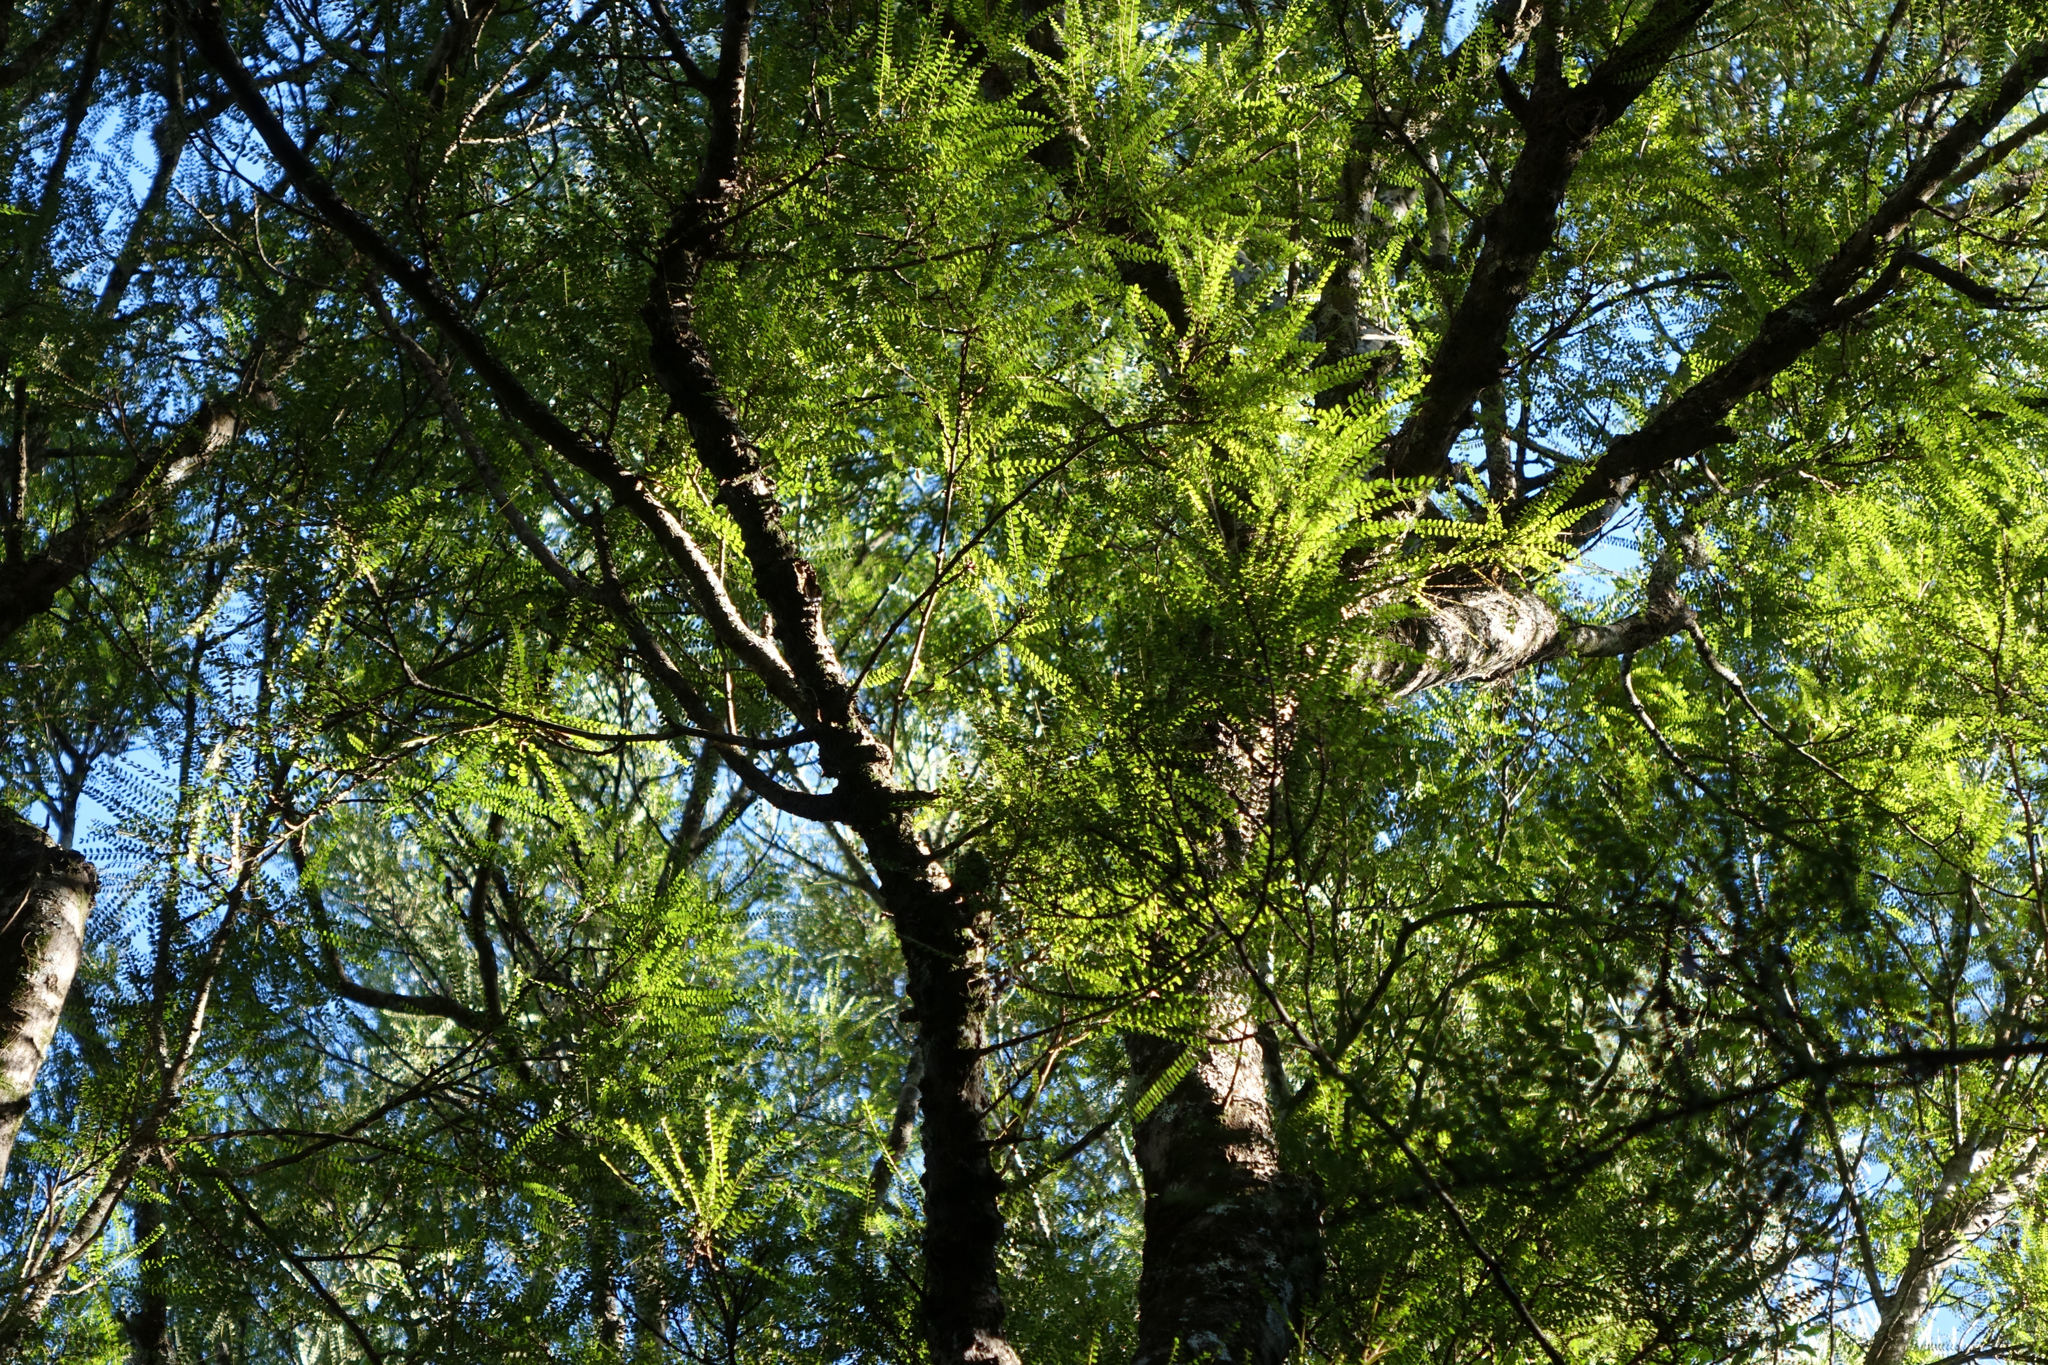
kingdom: Plantae
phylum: Tracheophyta
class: Magnoliopsida
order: Fabales
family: Fabaceae
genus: Sophora
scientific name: Sophora microphylla
